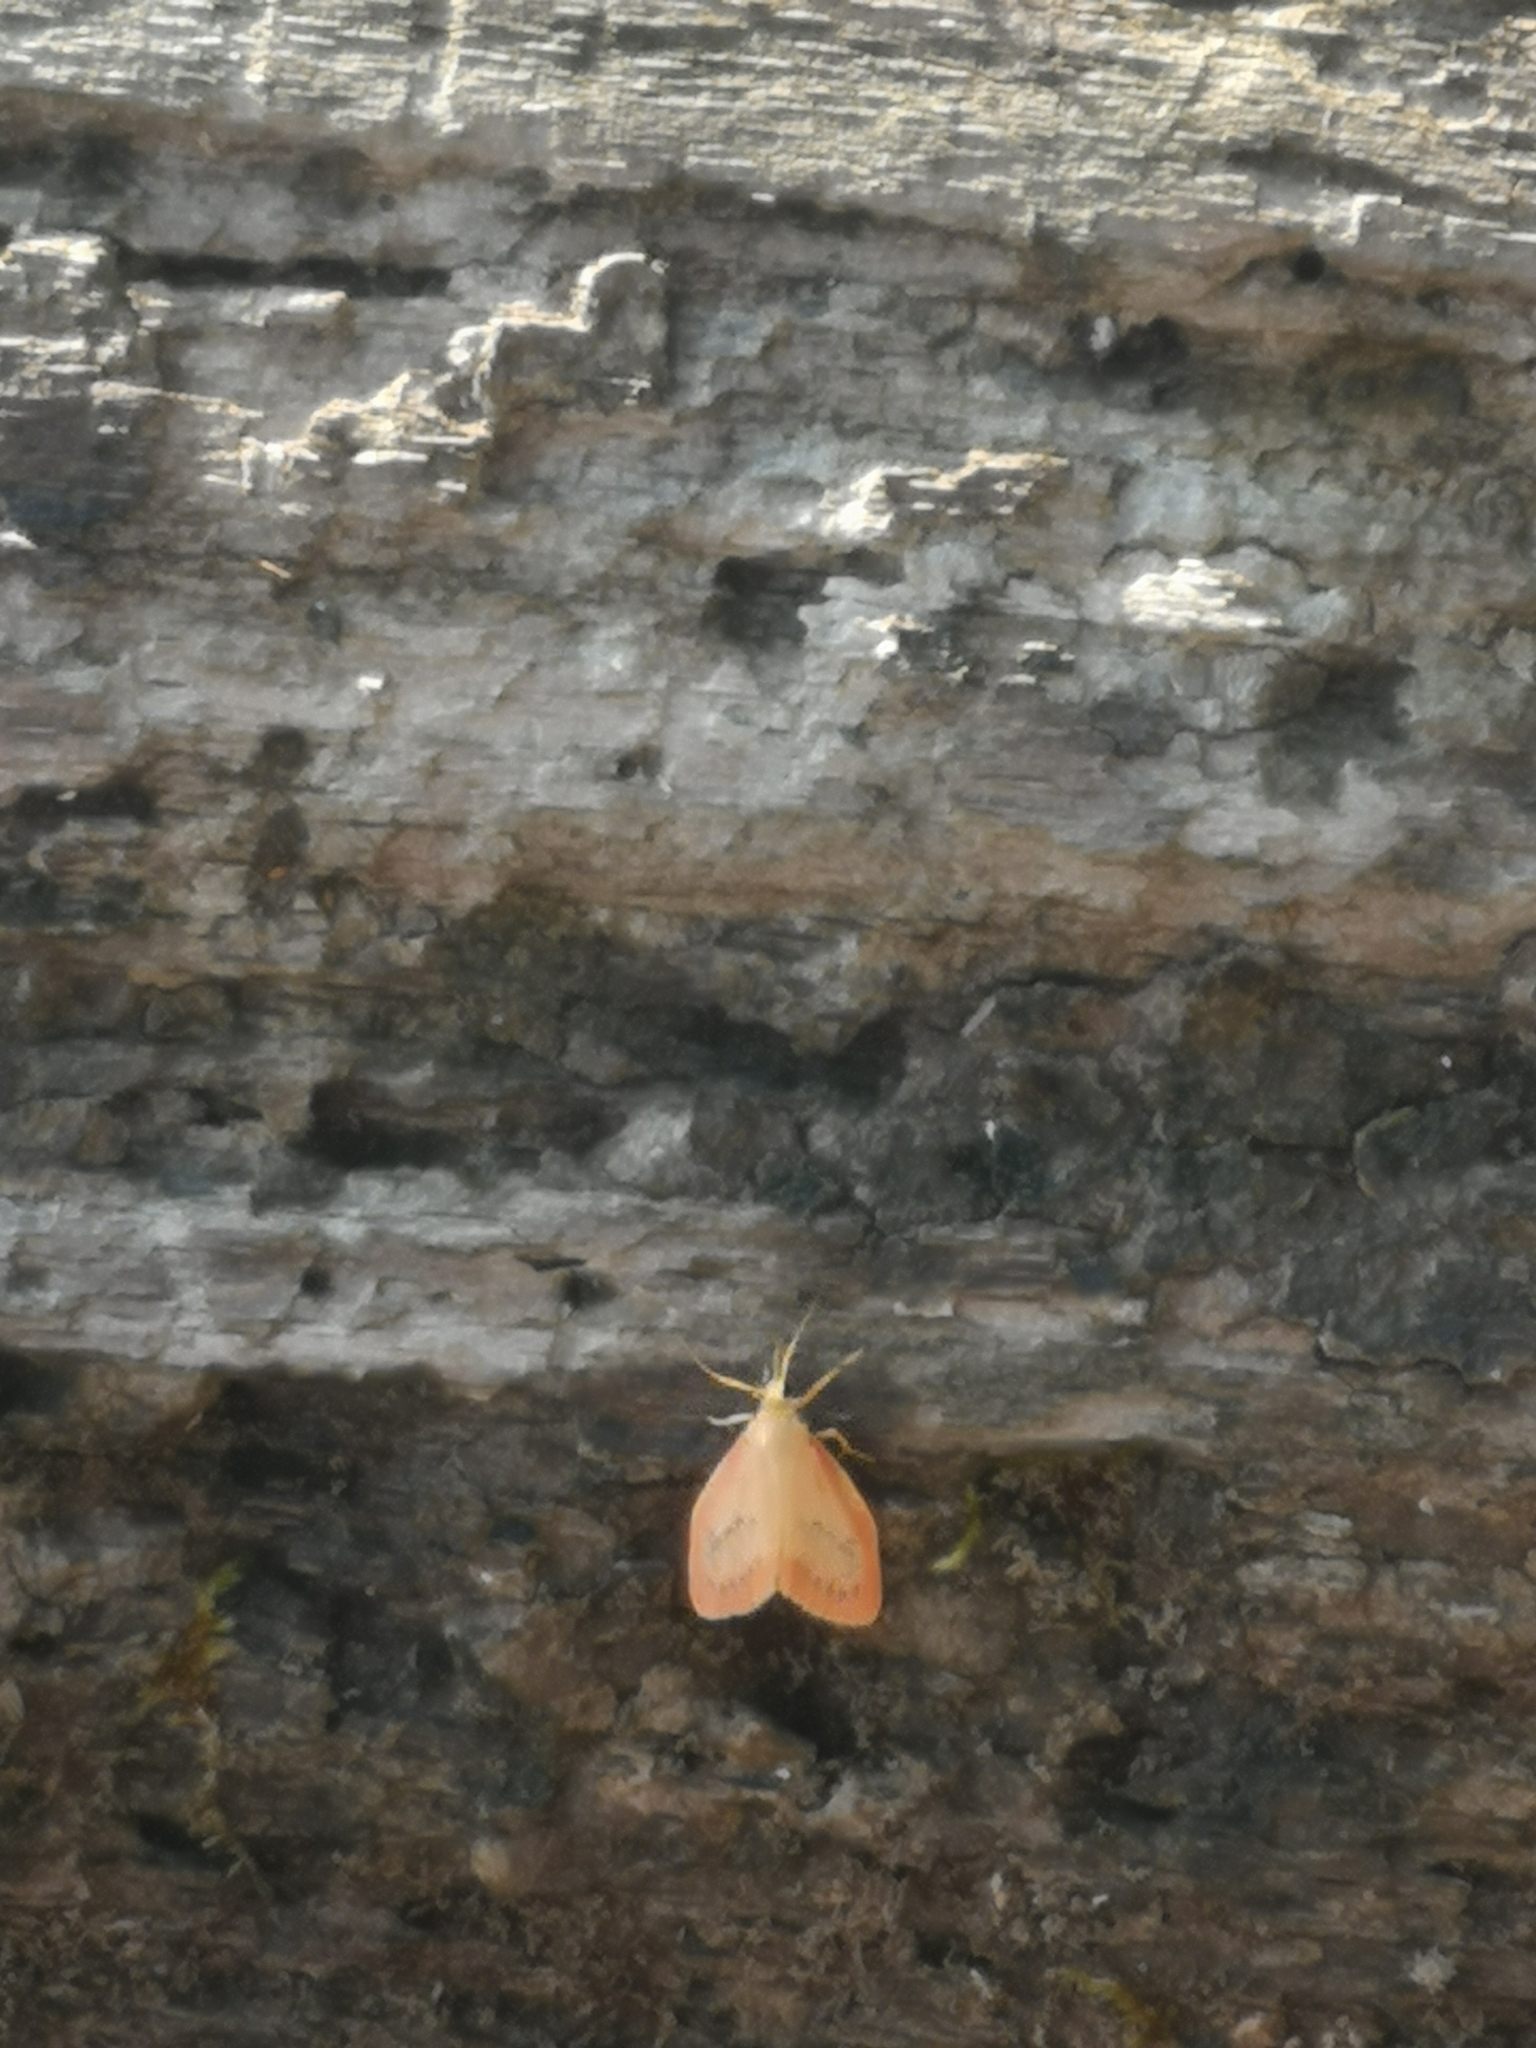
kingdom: Animalia
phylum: Arthropoda
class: Insecta
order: Lepidoptera
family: Erebidae
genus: Miltochrista
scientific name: Miltochrista miniata
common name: Rosy footman
